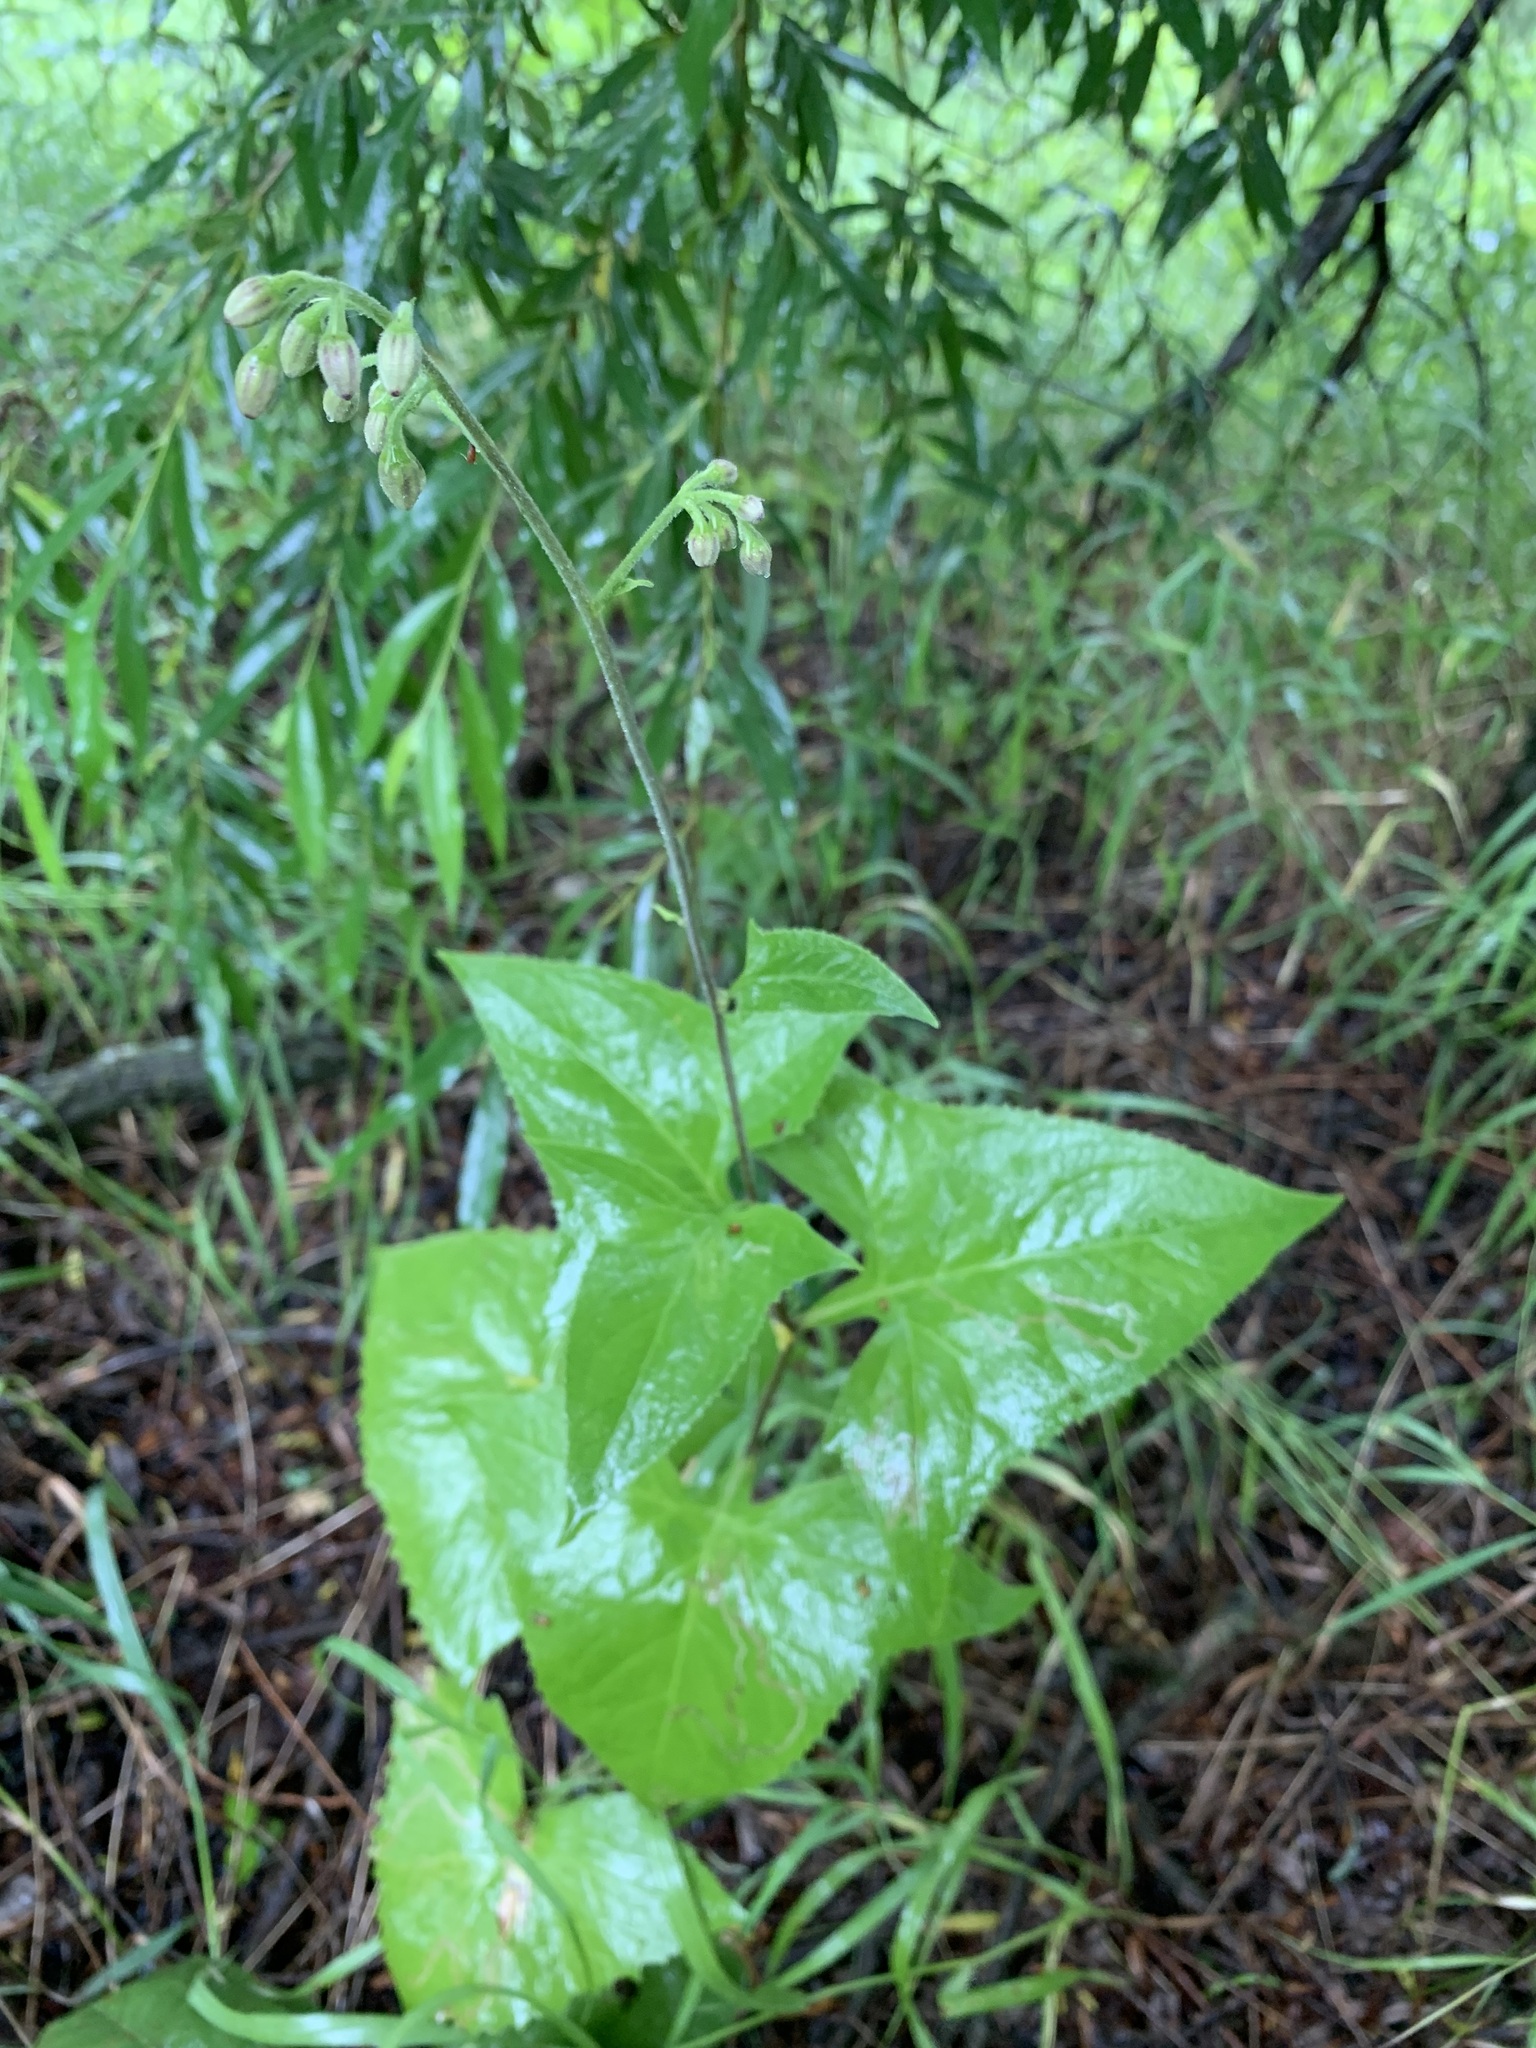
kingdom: Plantae
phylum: Tracheophyta
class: Magnoliopsida
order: Asterales
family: Asteraceae
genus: Parasenecio
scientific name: Parasenecio hastatus
